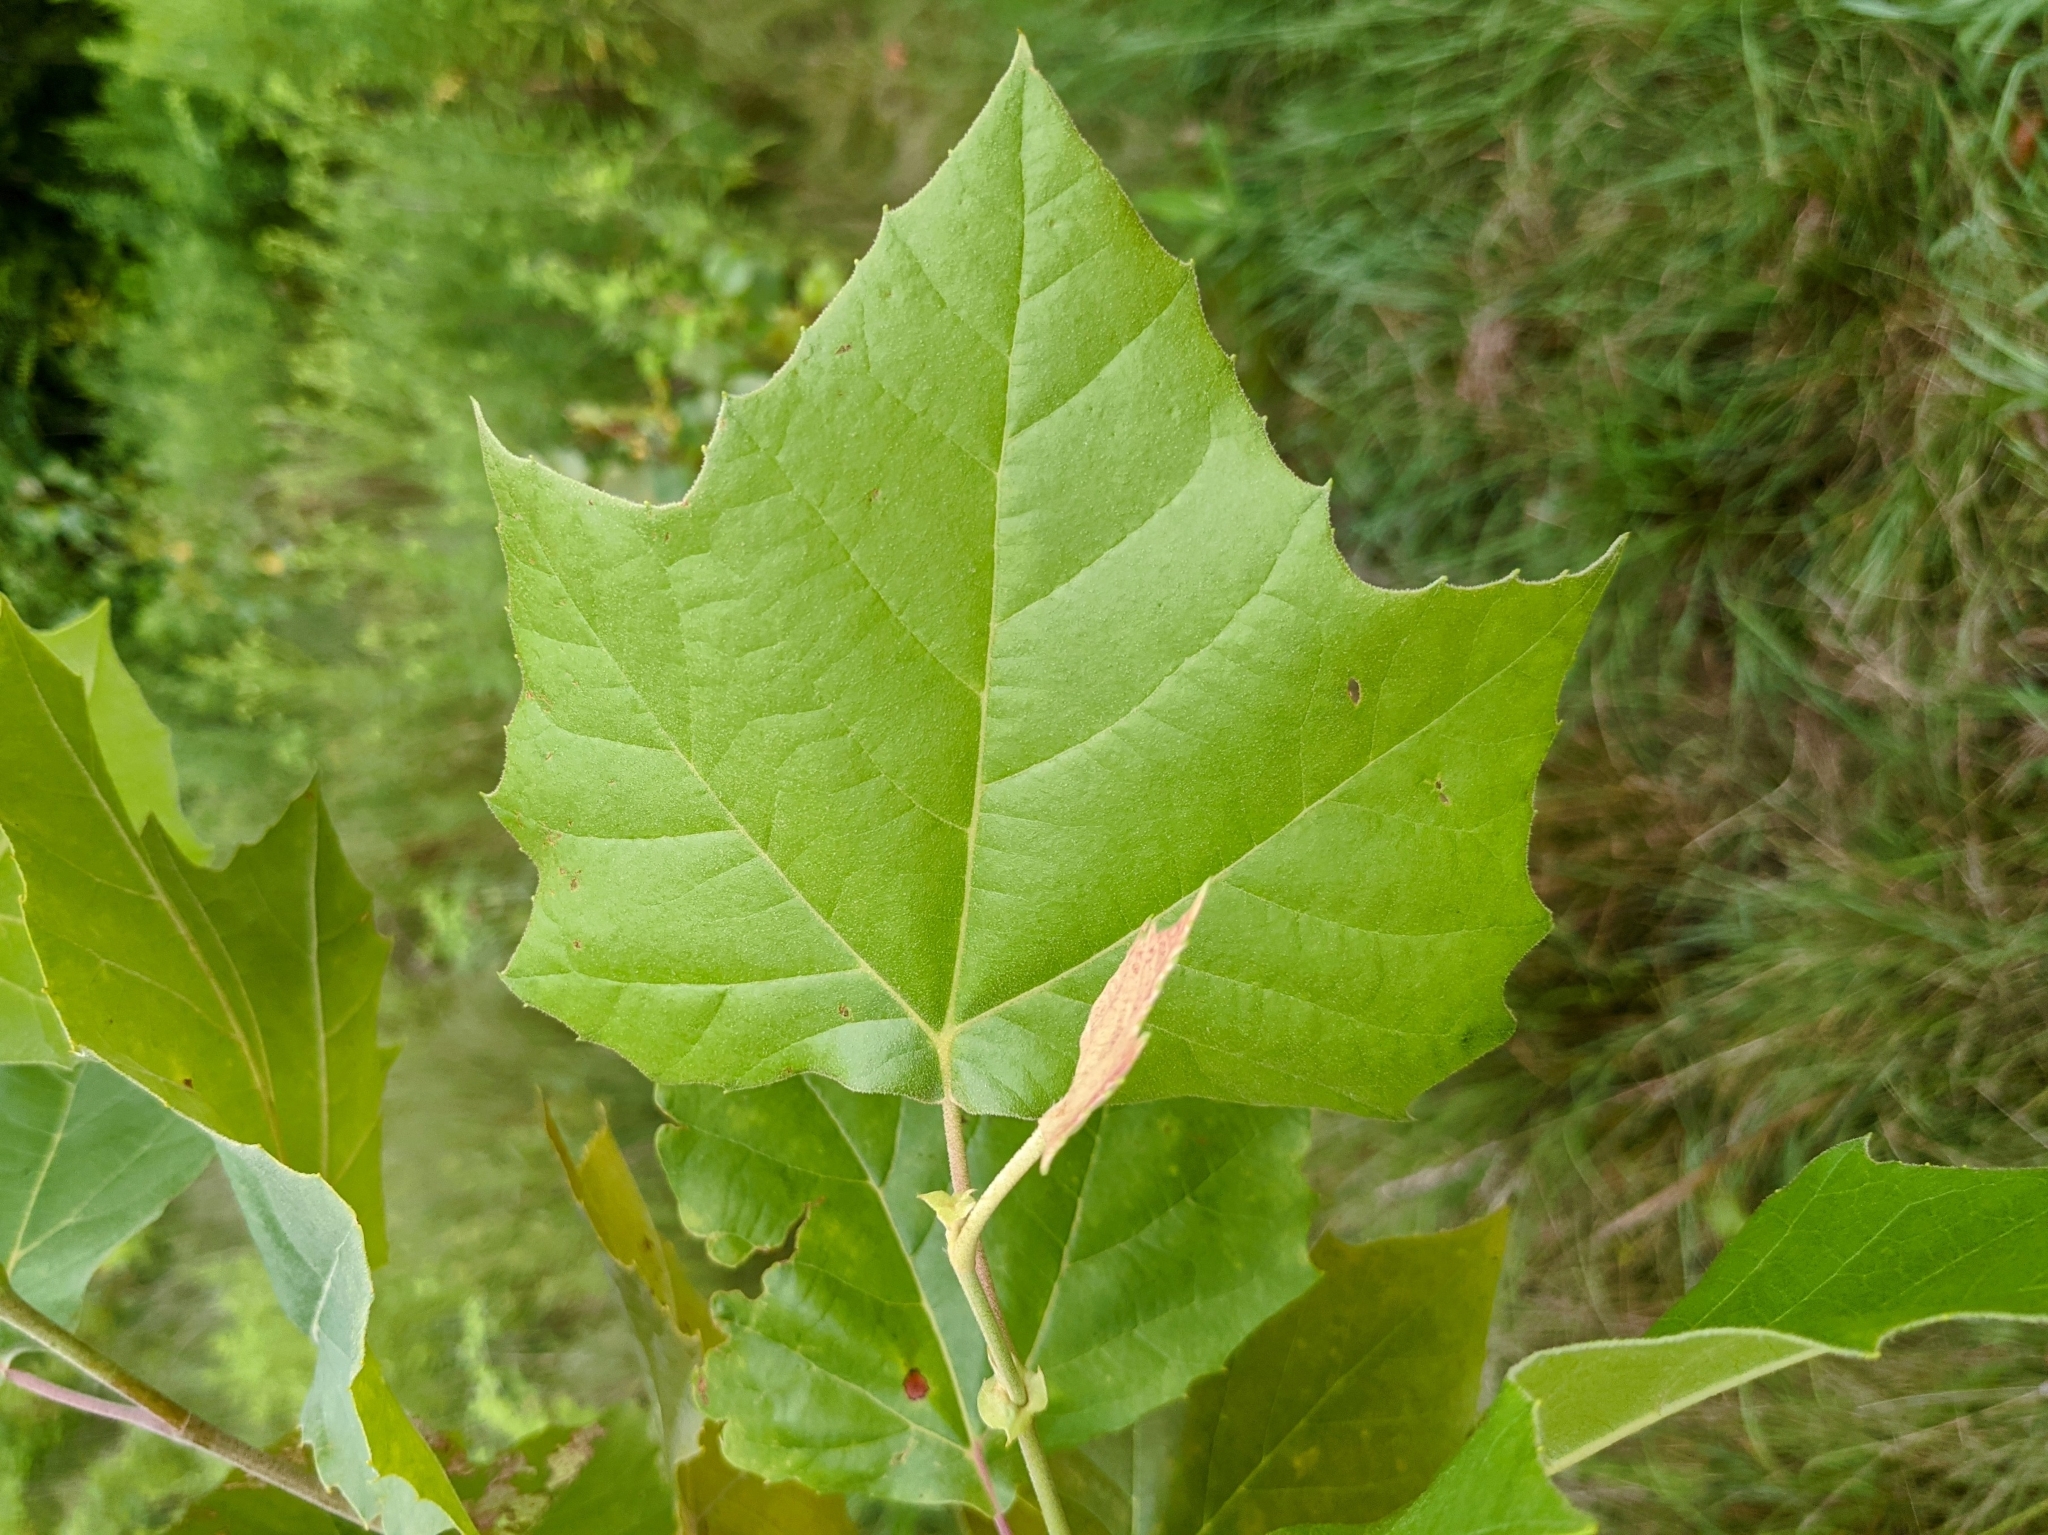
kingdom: Plantae
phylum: Tracheophyta
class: Magnoliopsida
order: Proteales
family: Platanaceae
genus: Platanus
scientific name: Platanus occidentalis
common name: American sycamore
